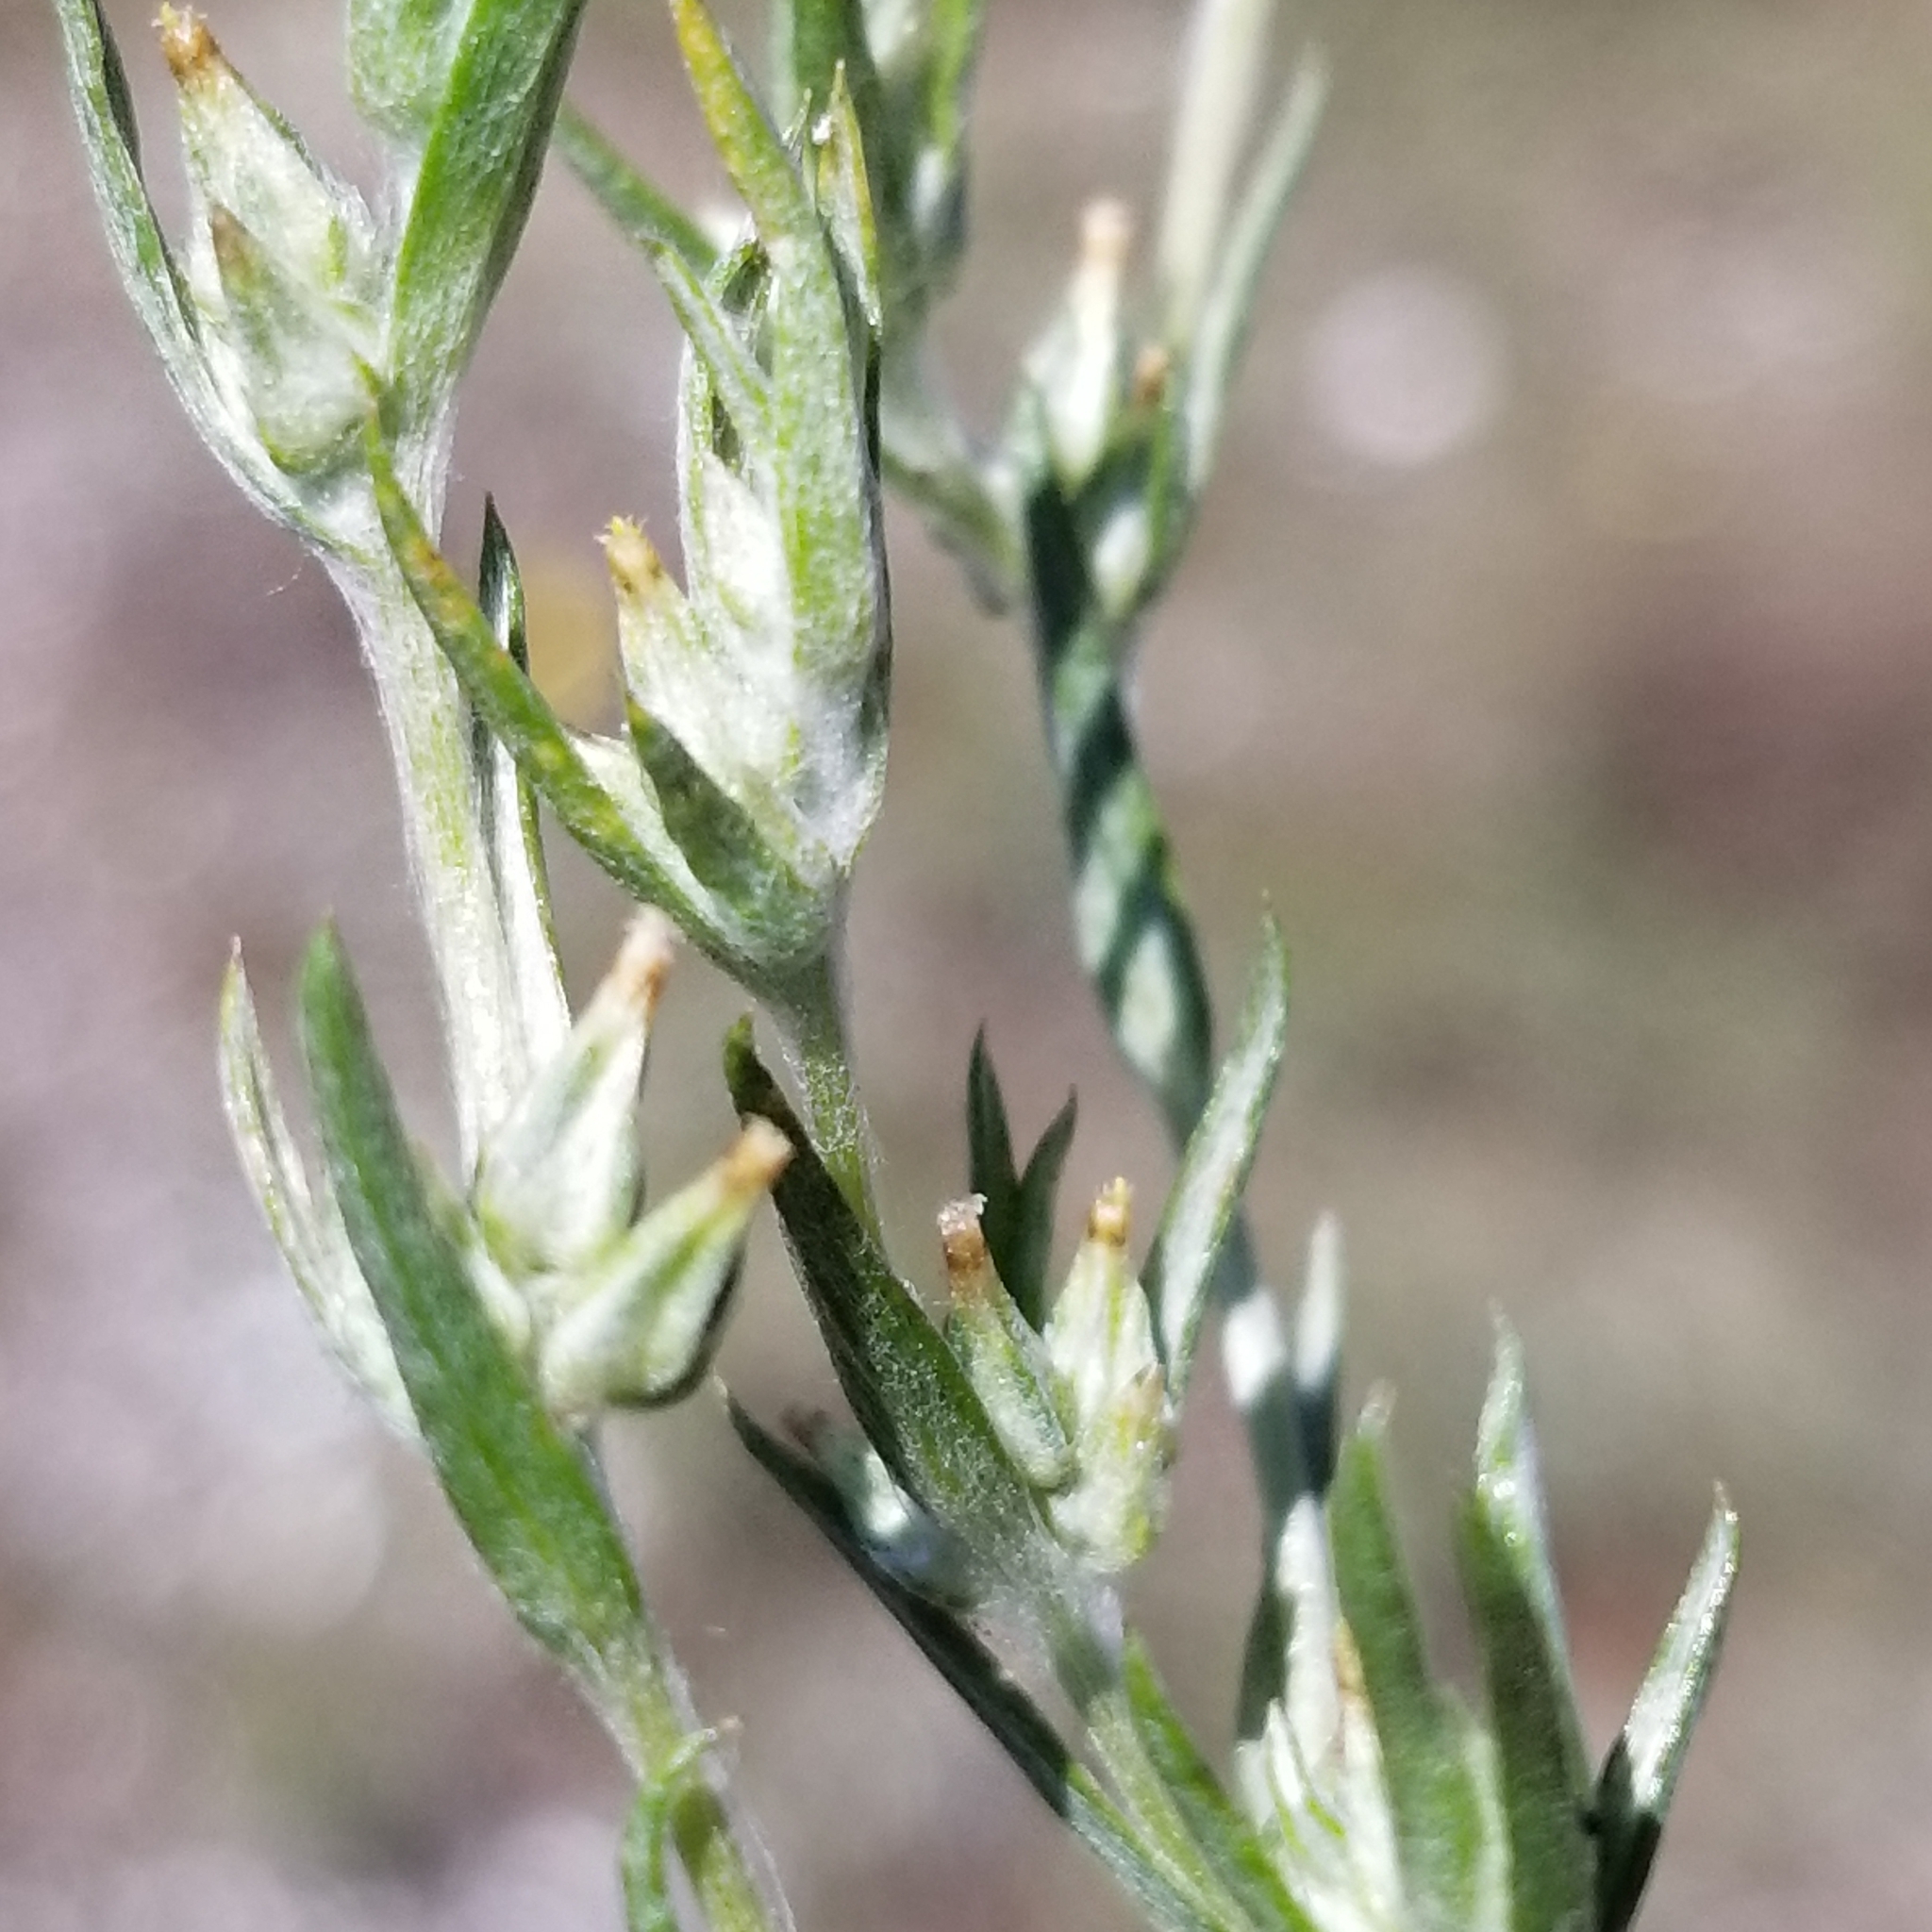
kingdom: Plantae
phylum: Tracheophyta
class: Magnoliopsida
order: Asterales
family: Asteraceae
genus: Logfia
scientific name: Logfia gallica
